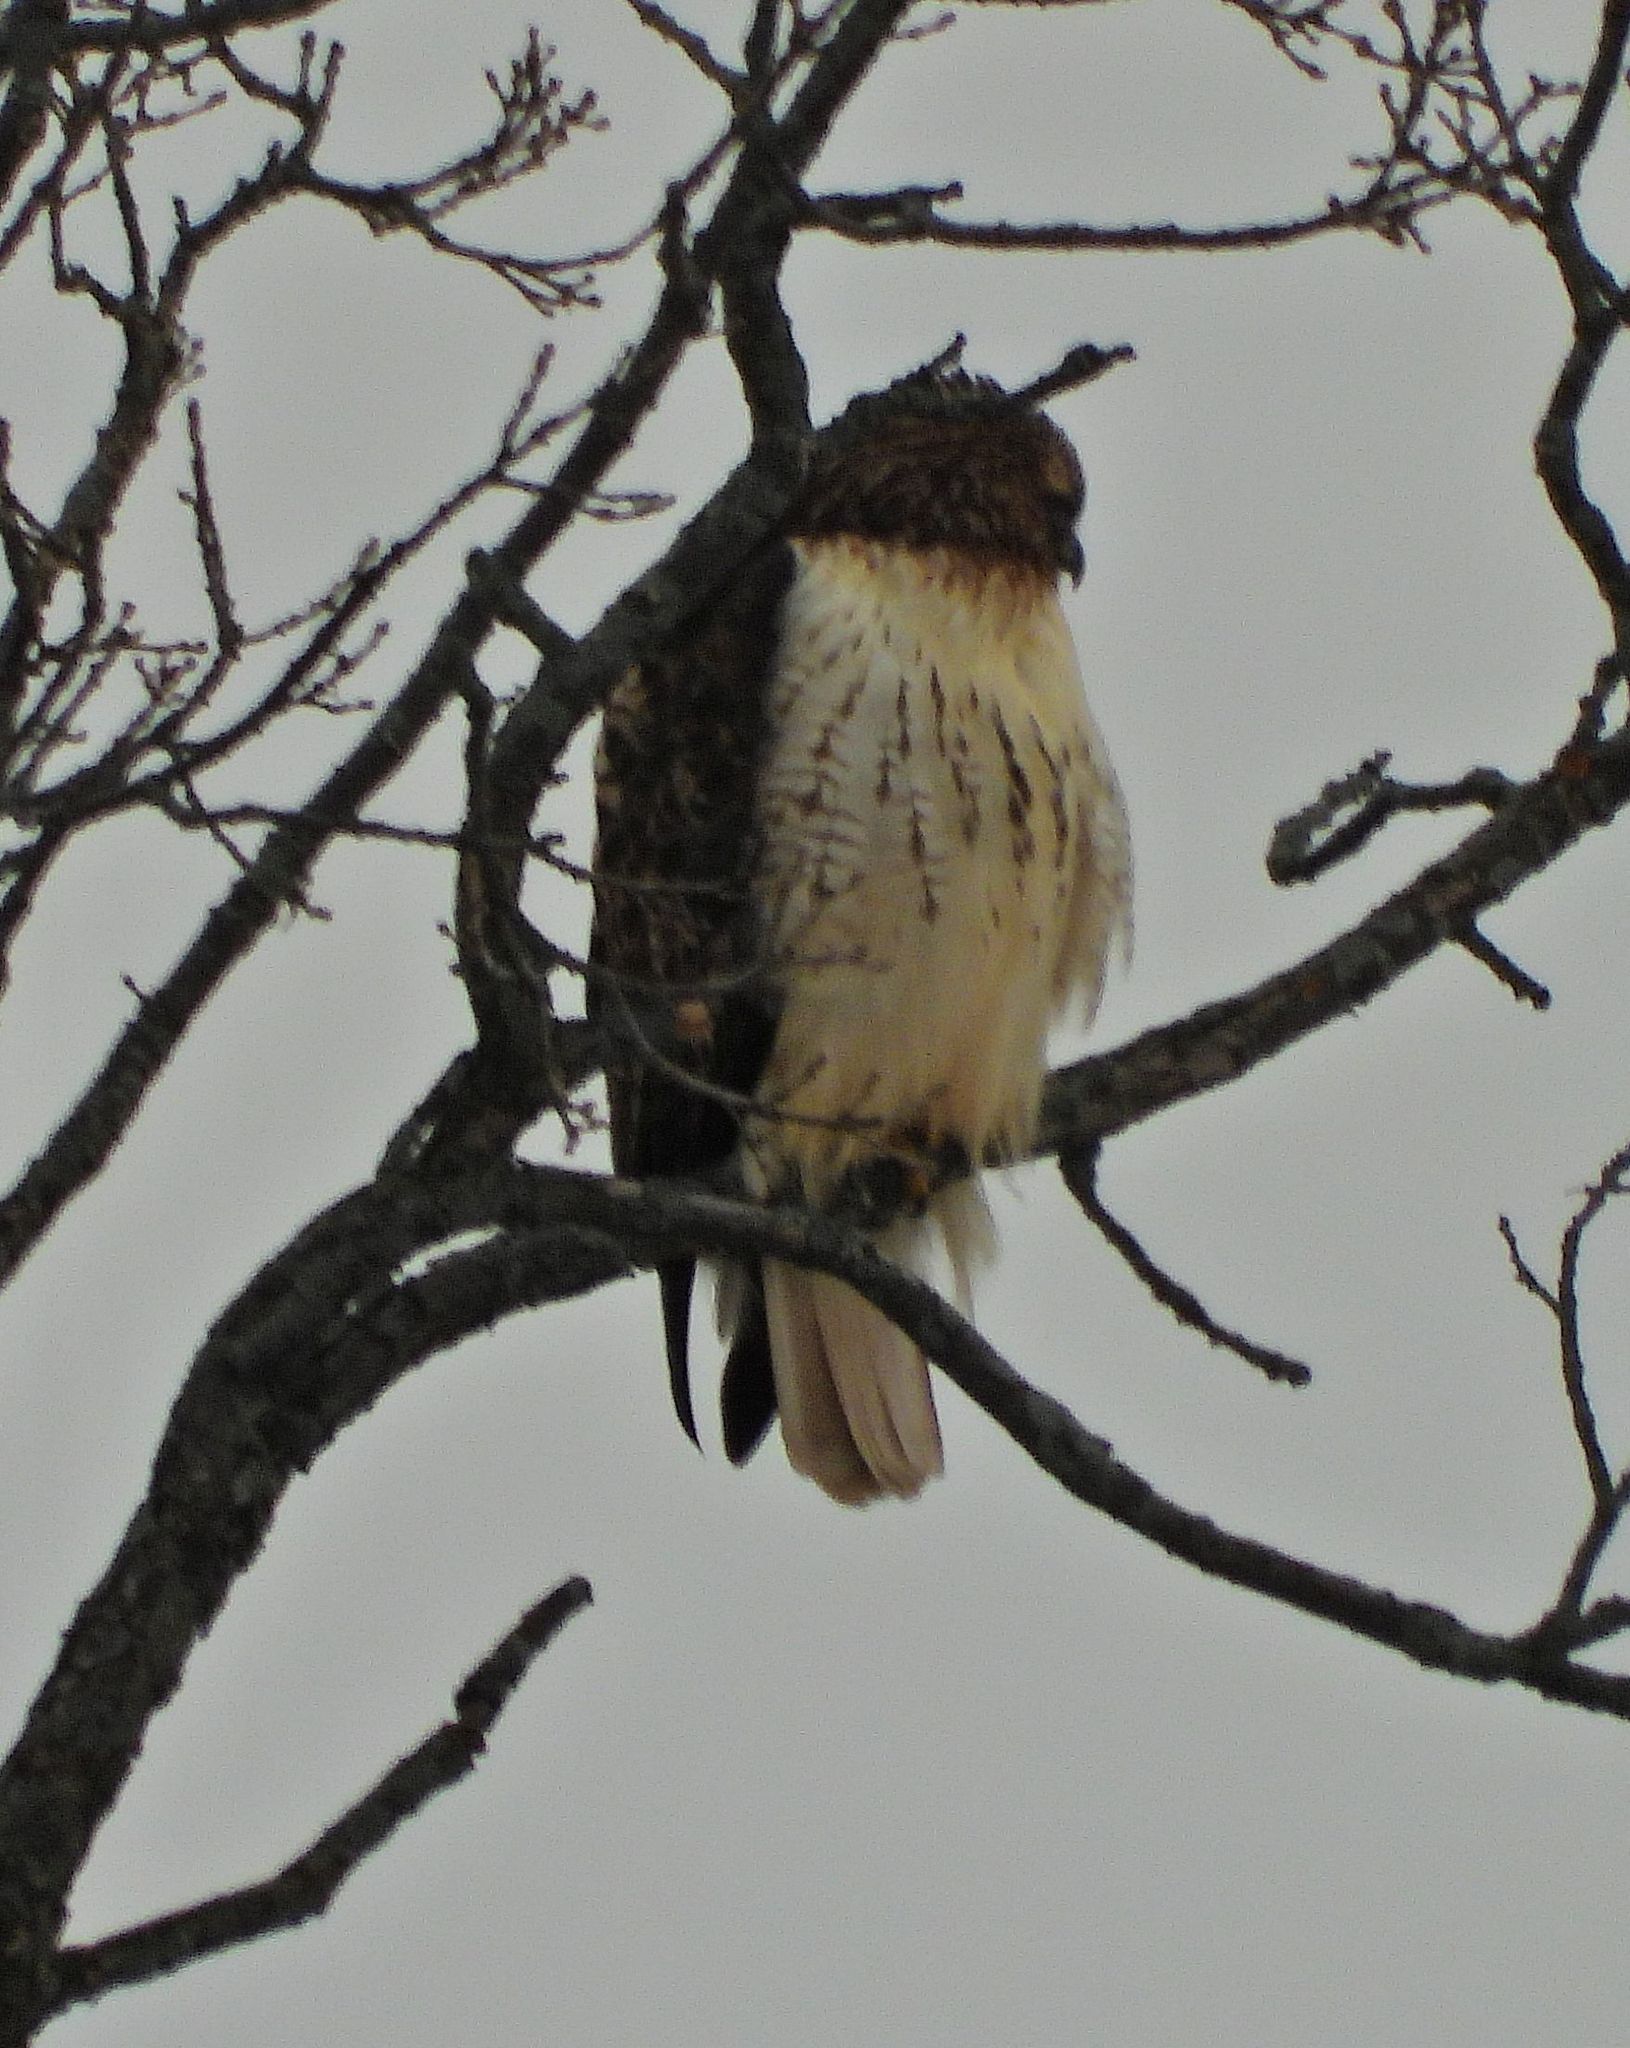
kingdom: Animalia
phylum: Chordata
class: Aves
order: Accipitriformes
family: Accipitridae
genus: Buteo
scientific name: Buteo jamaicensis
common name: Red-tailed hawk
